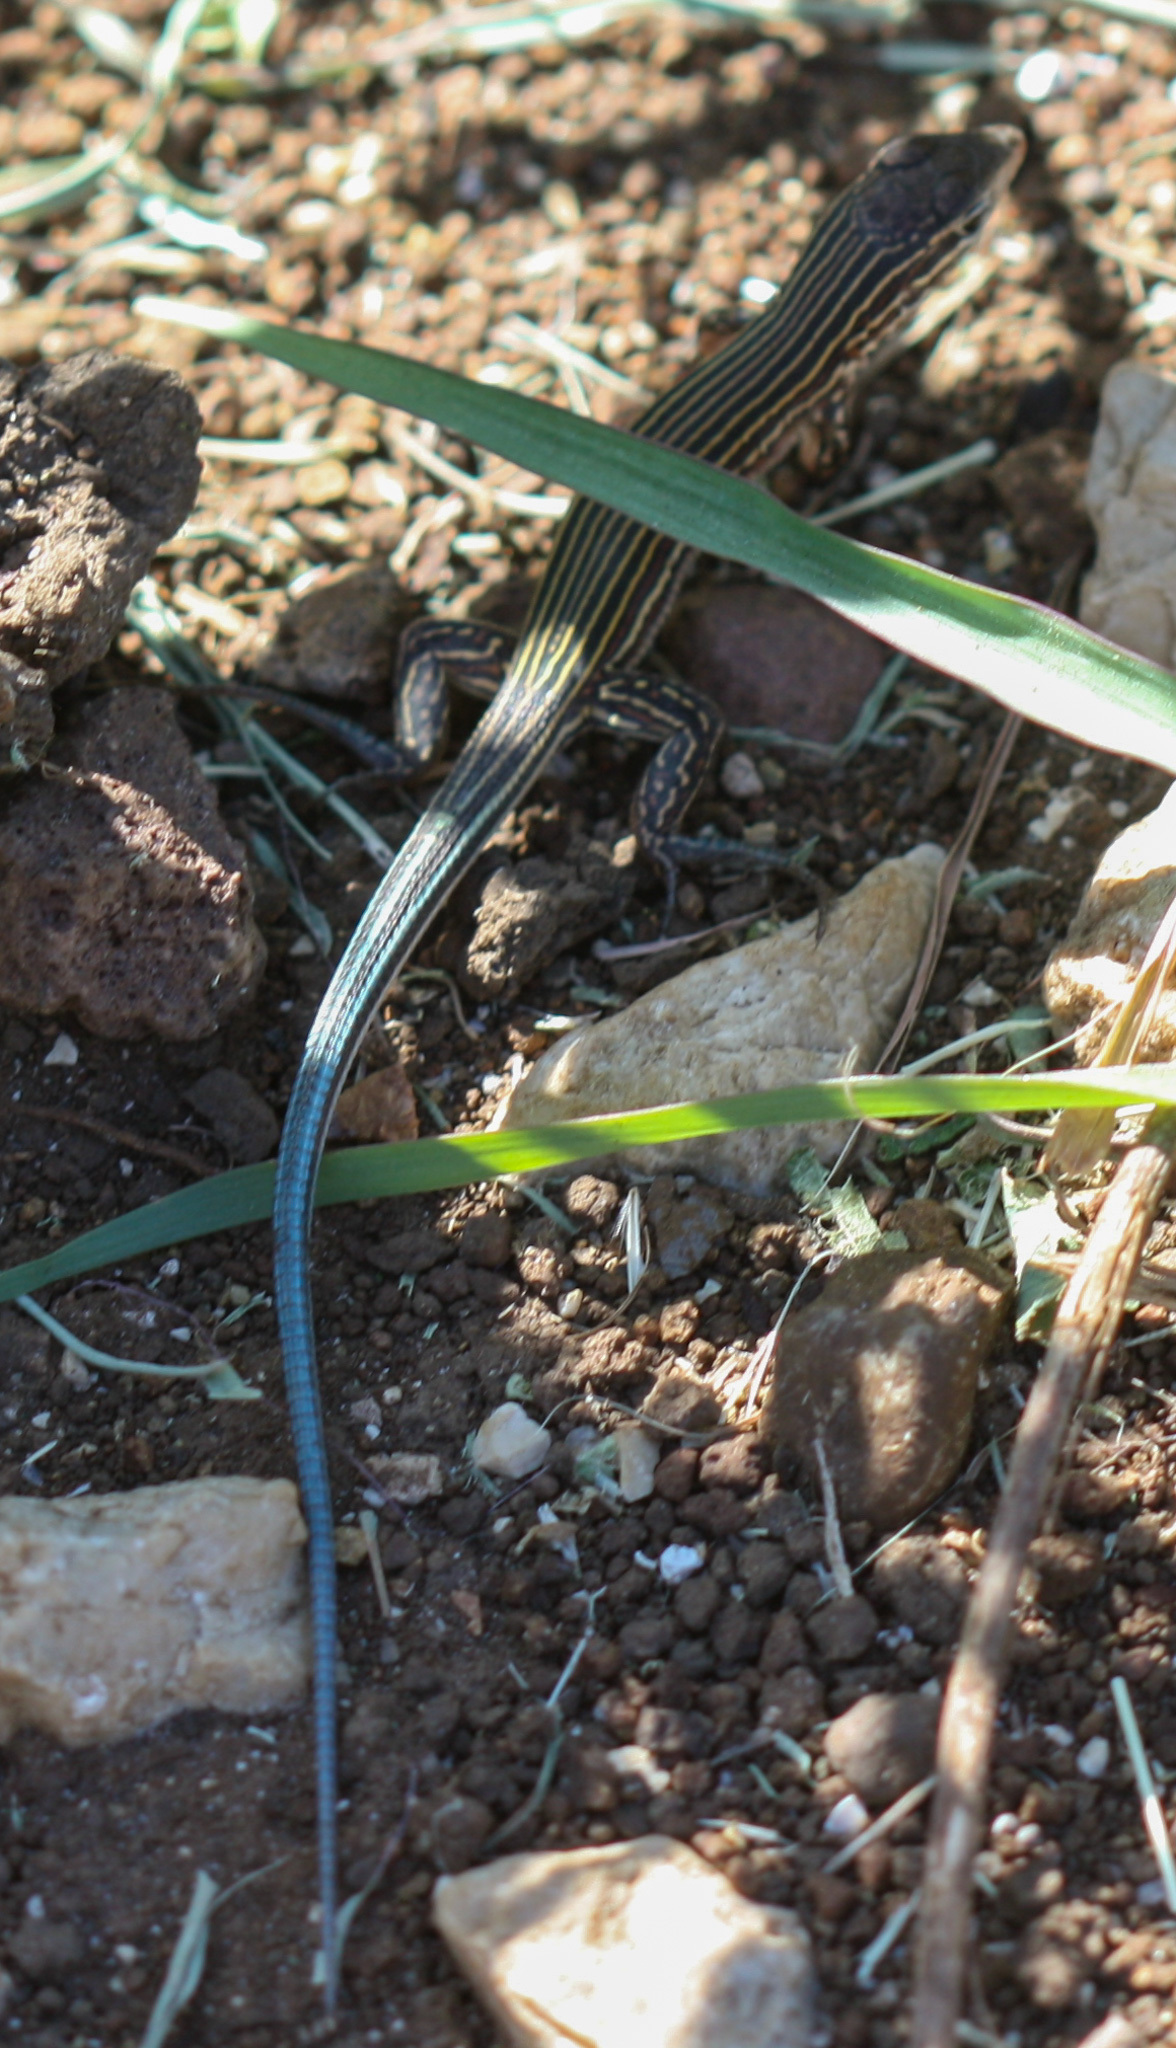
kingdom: Animalia
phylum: Chordata
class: Squamata
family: Teiidae
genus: Aspidoscelis
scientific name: Aspidoscelis deppii
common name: Blackbelly racerunner
